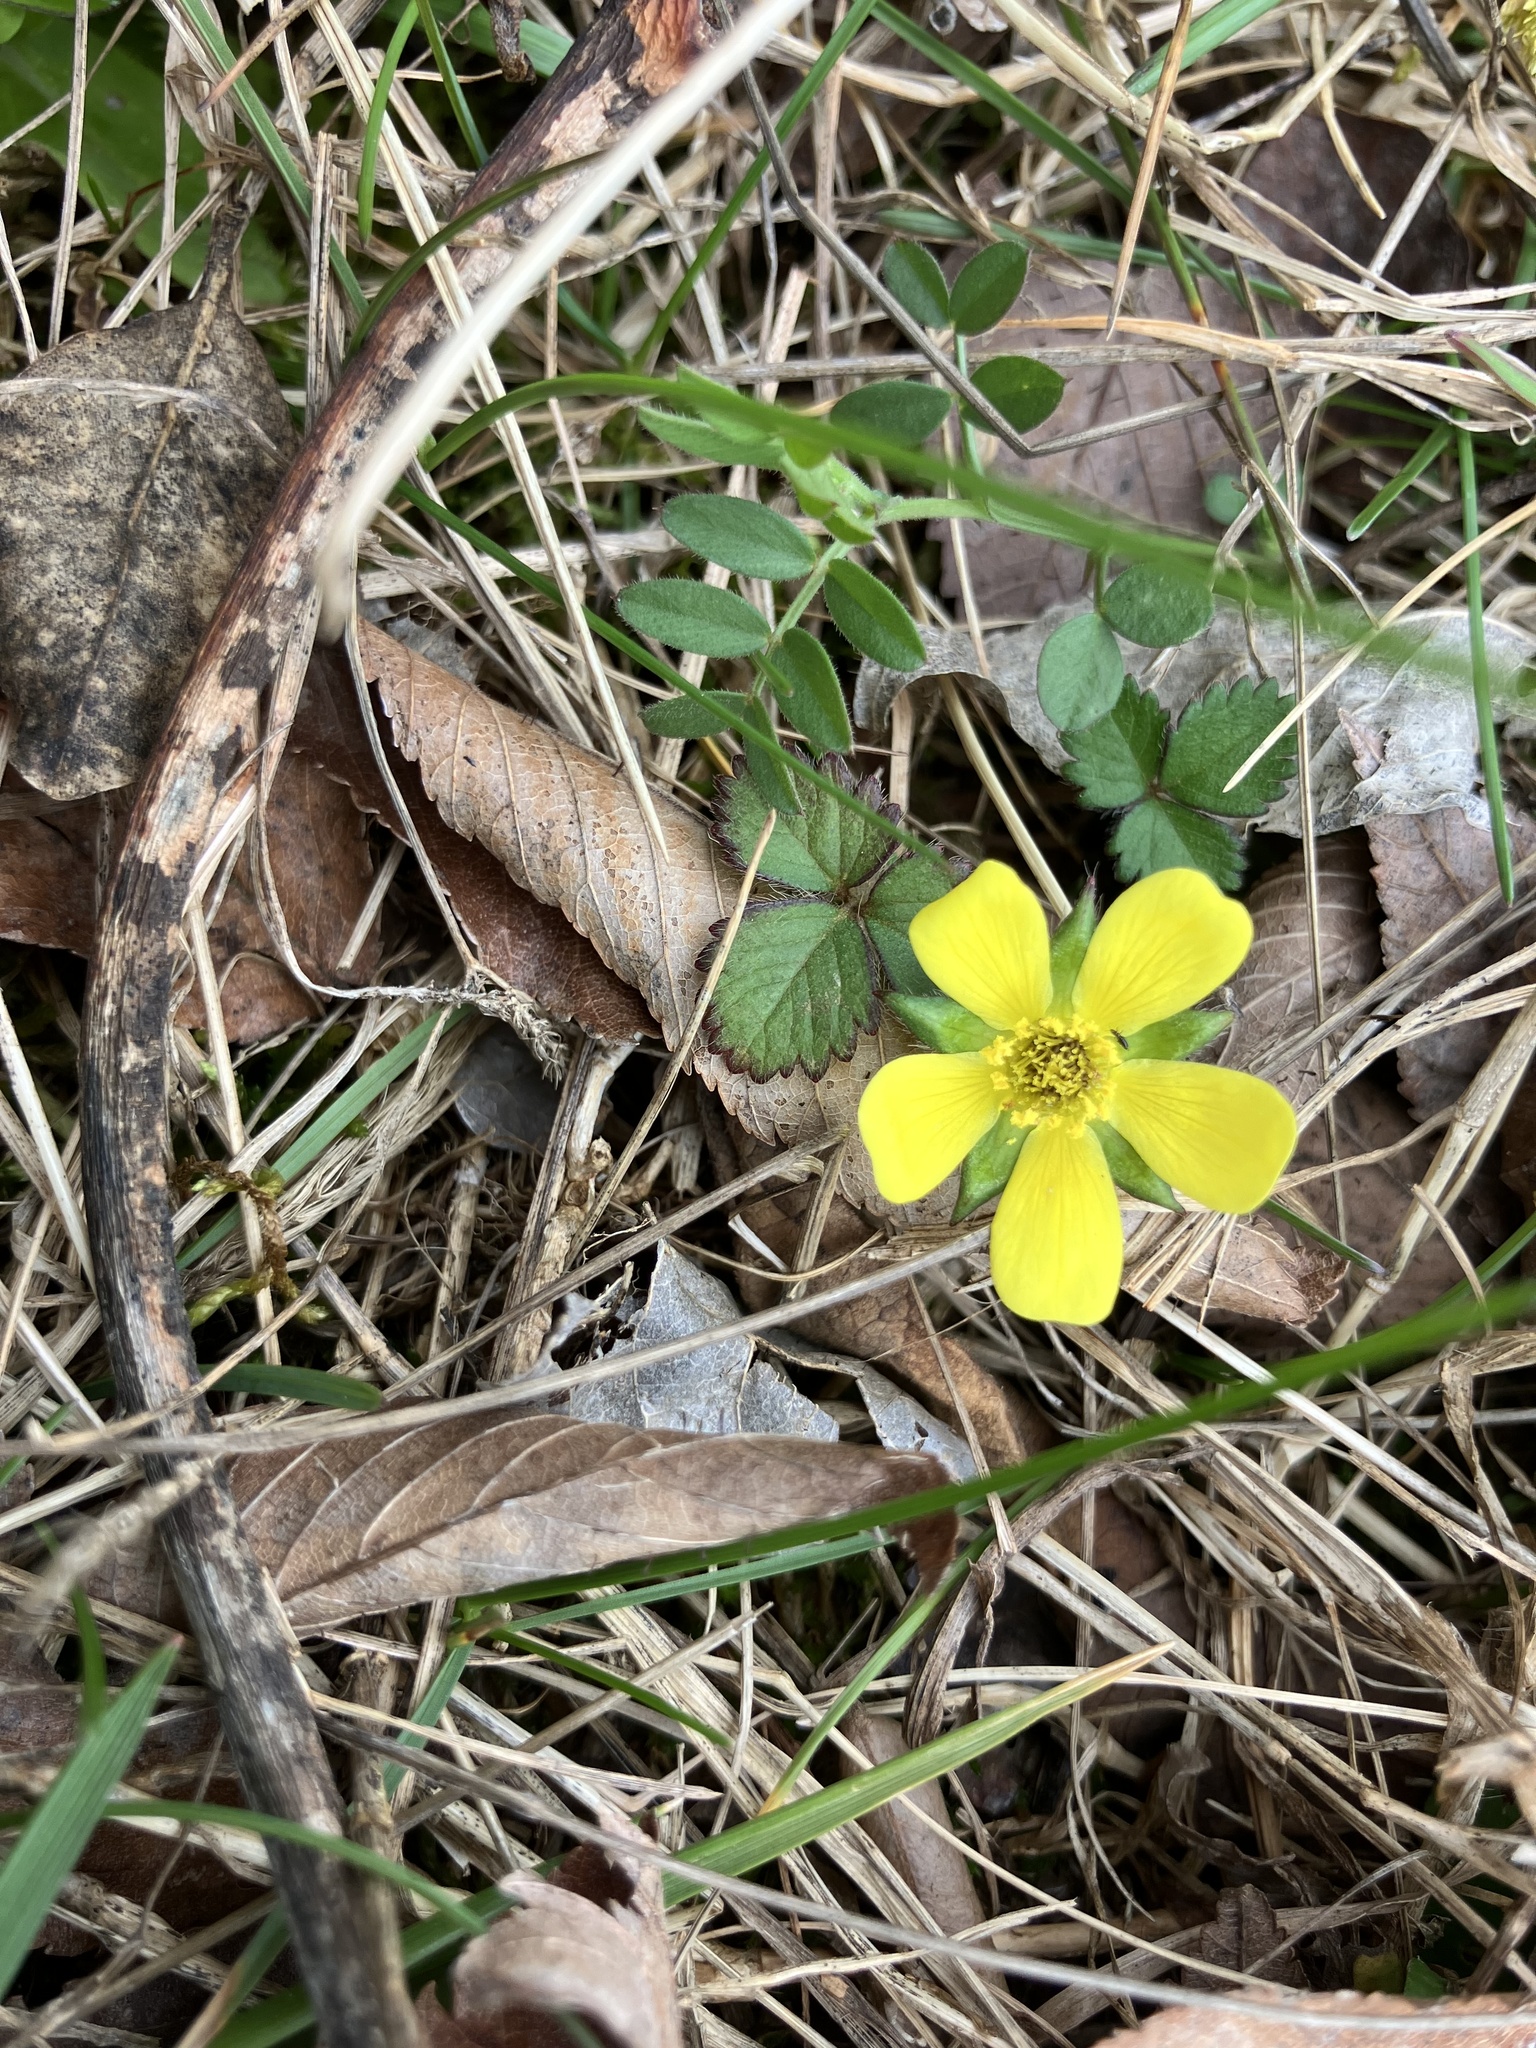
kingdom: Plantae
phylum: Tracheophyta
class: Magnoliopsida
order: Rosales
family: Rosaceae
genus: Potentilla
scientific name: Potentilla indica
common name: Yellow-flowered strawberry
